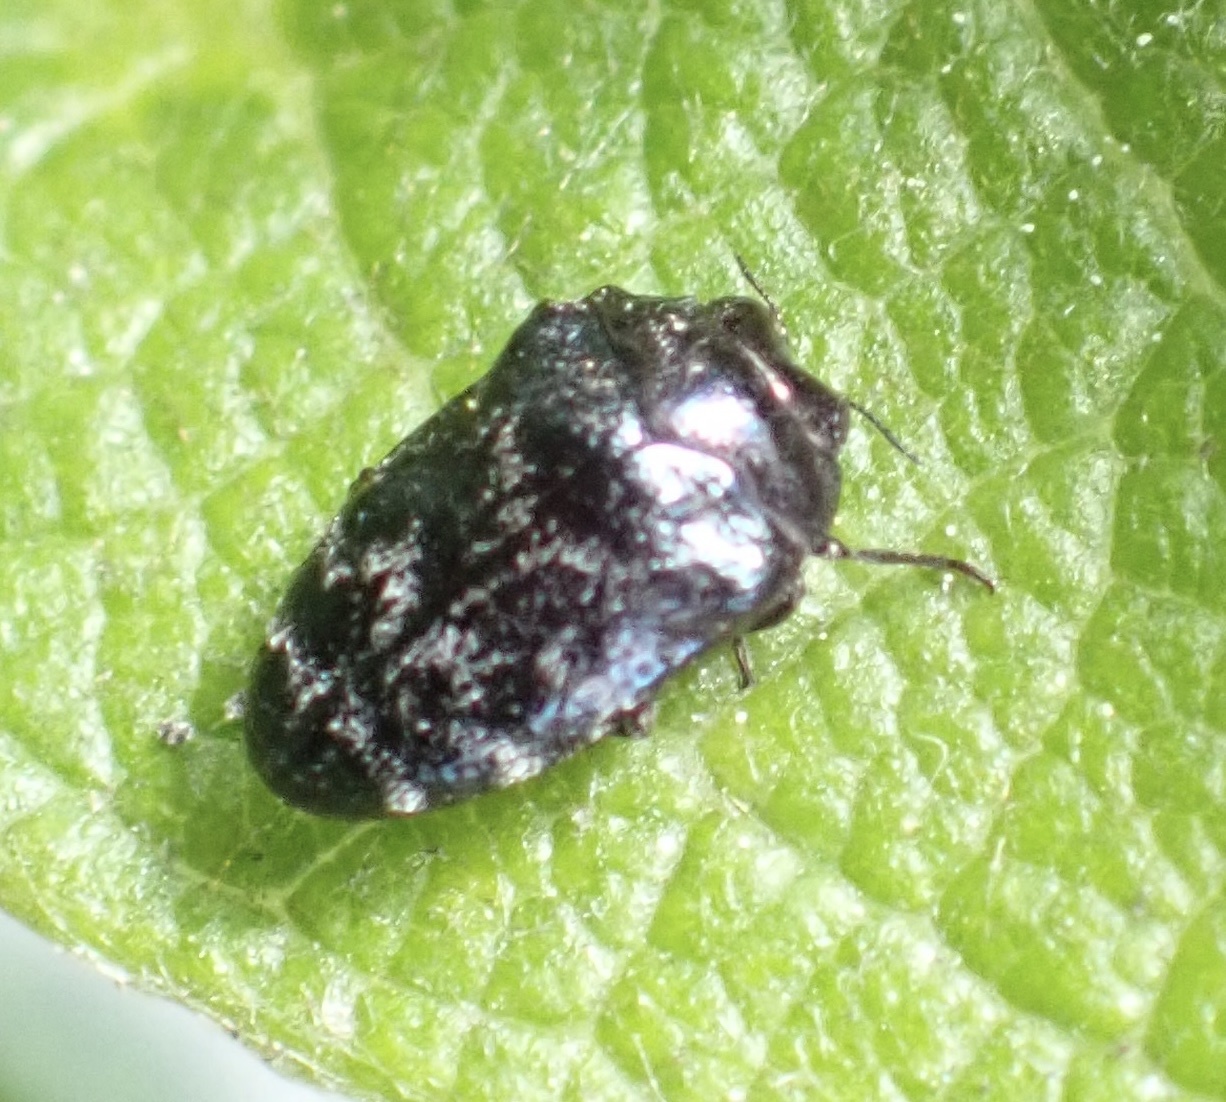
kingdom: Animalia
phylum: Arthropoda
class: Insecta
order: Coleoptera
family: Buprestidae
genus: Trachys
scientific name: Trachys minutus
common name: Metallic wood-boring beetle
